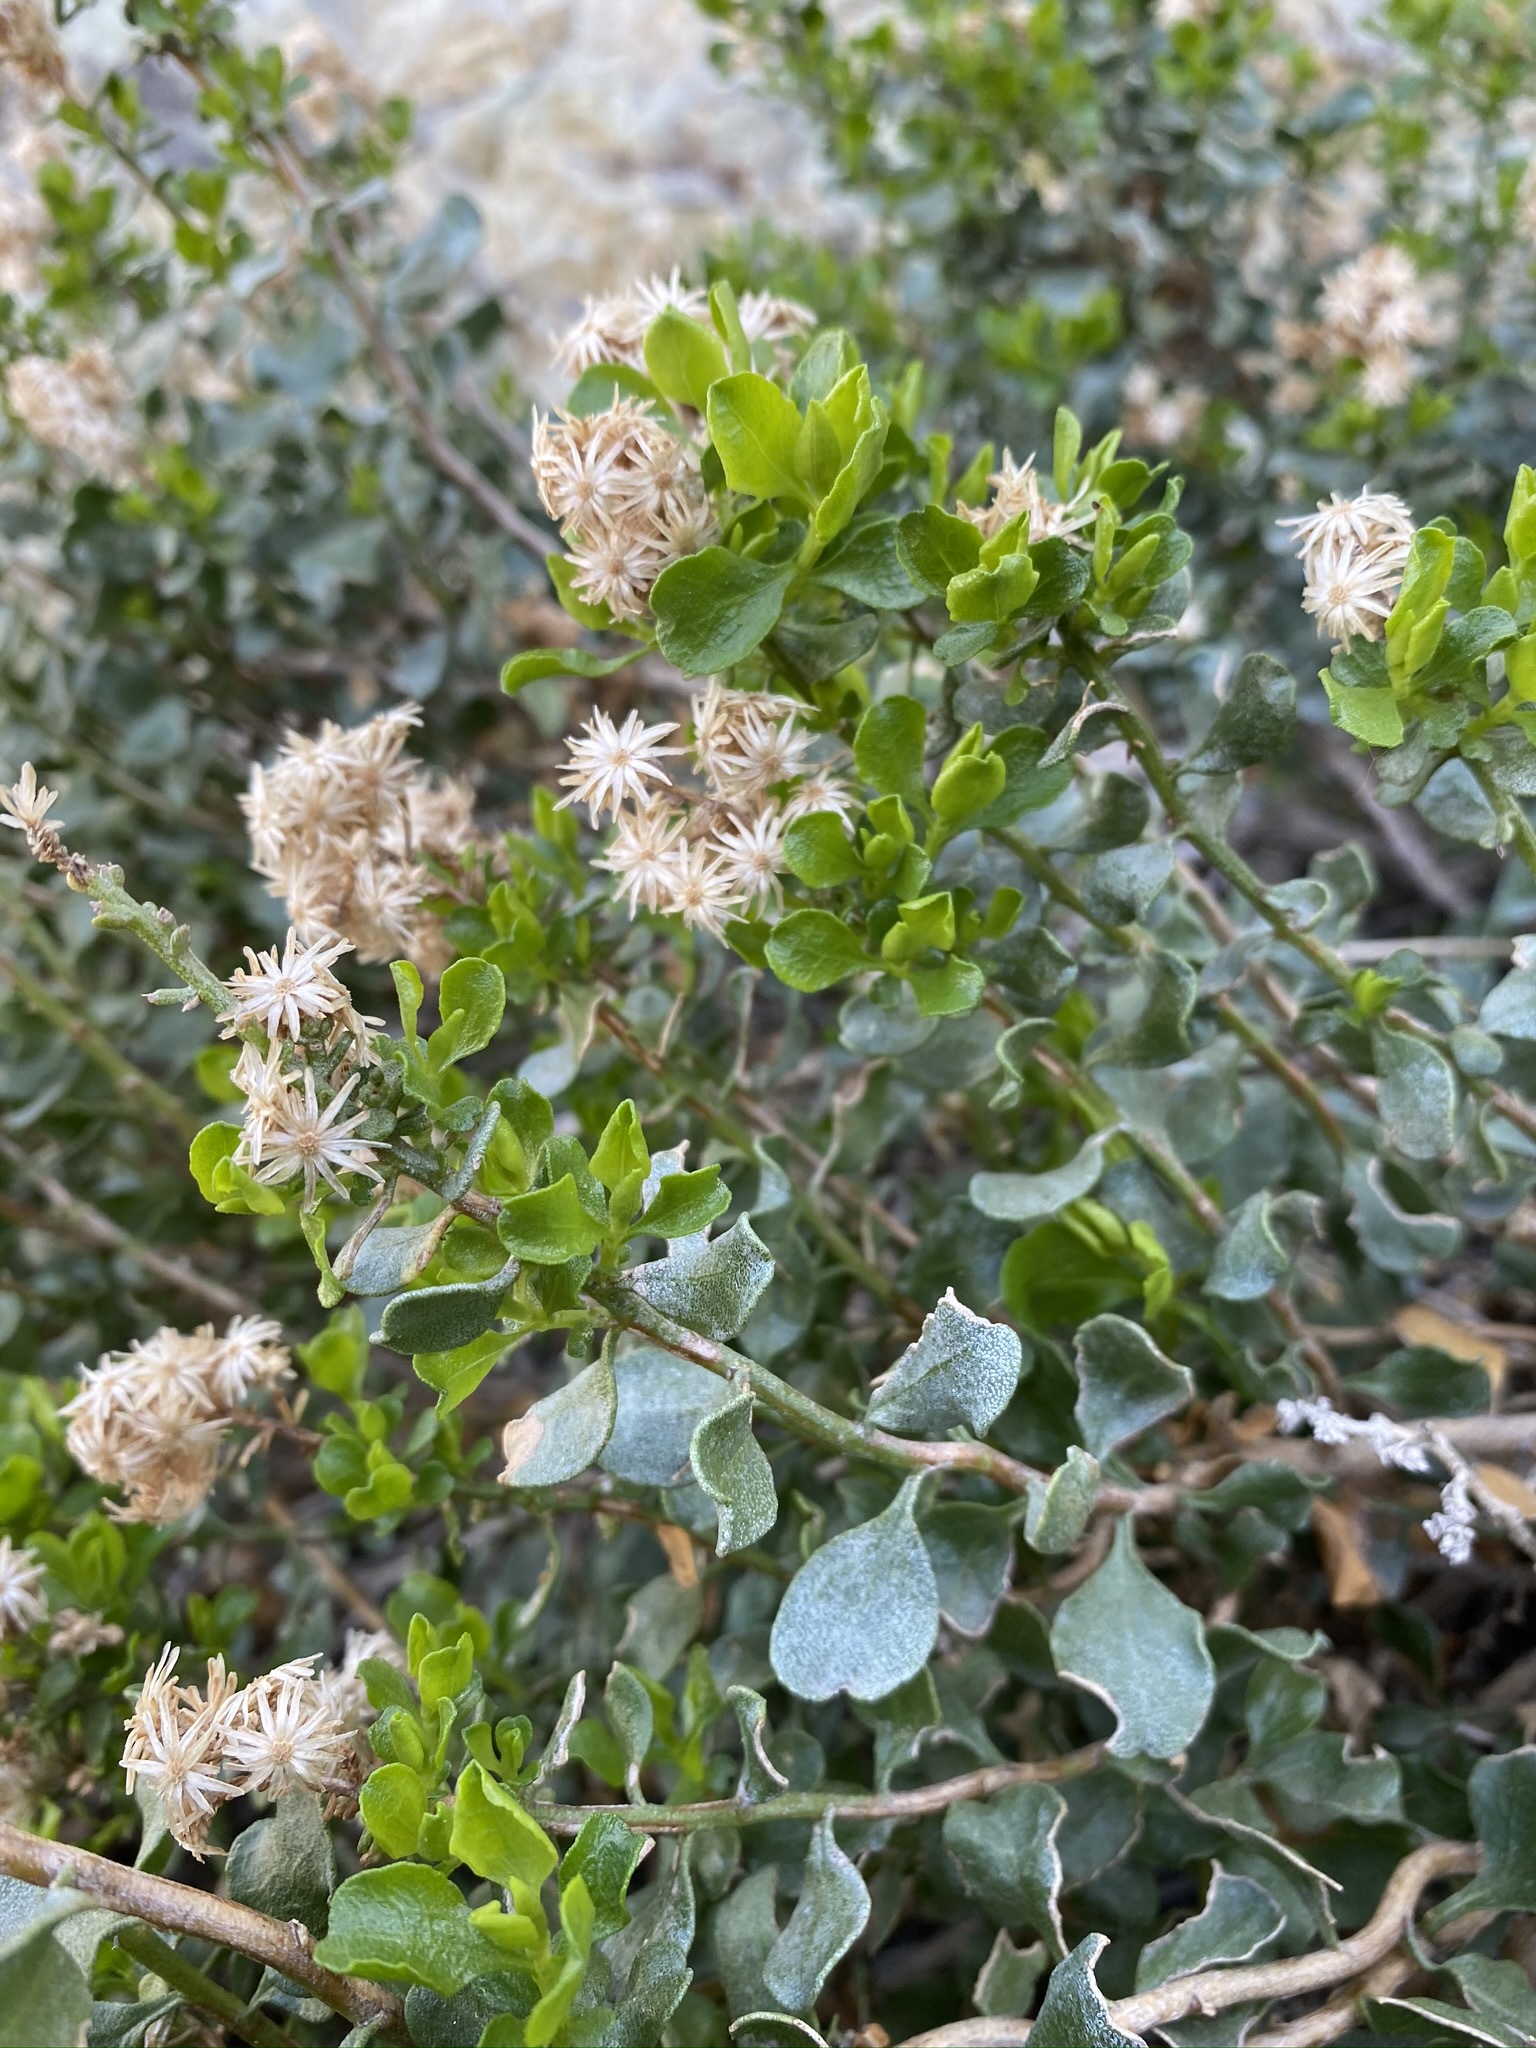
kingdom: Plantae
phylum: Tracheophyta
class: Magnoliopsida
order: Asterales
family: Asteraceae
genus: Ericameria
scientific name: Ericameria cuneata
